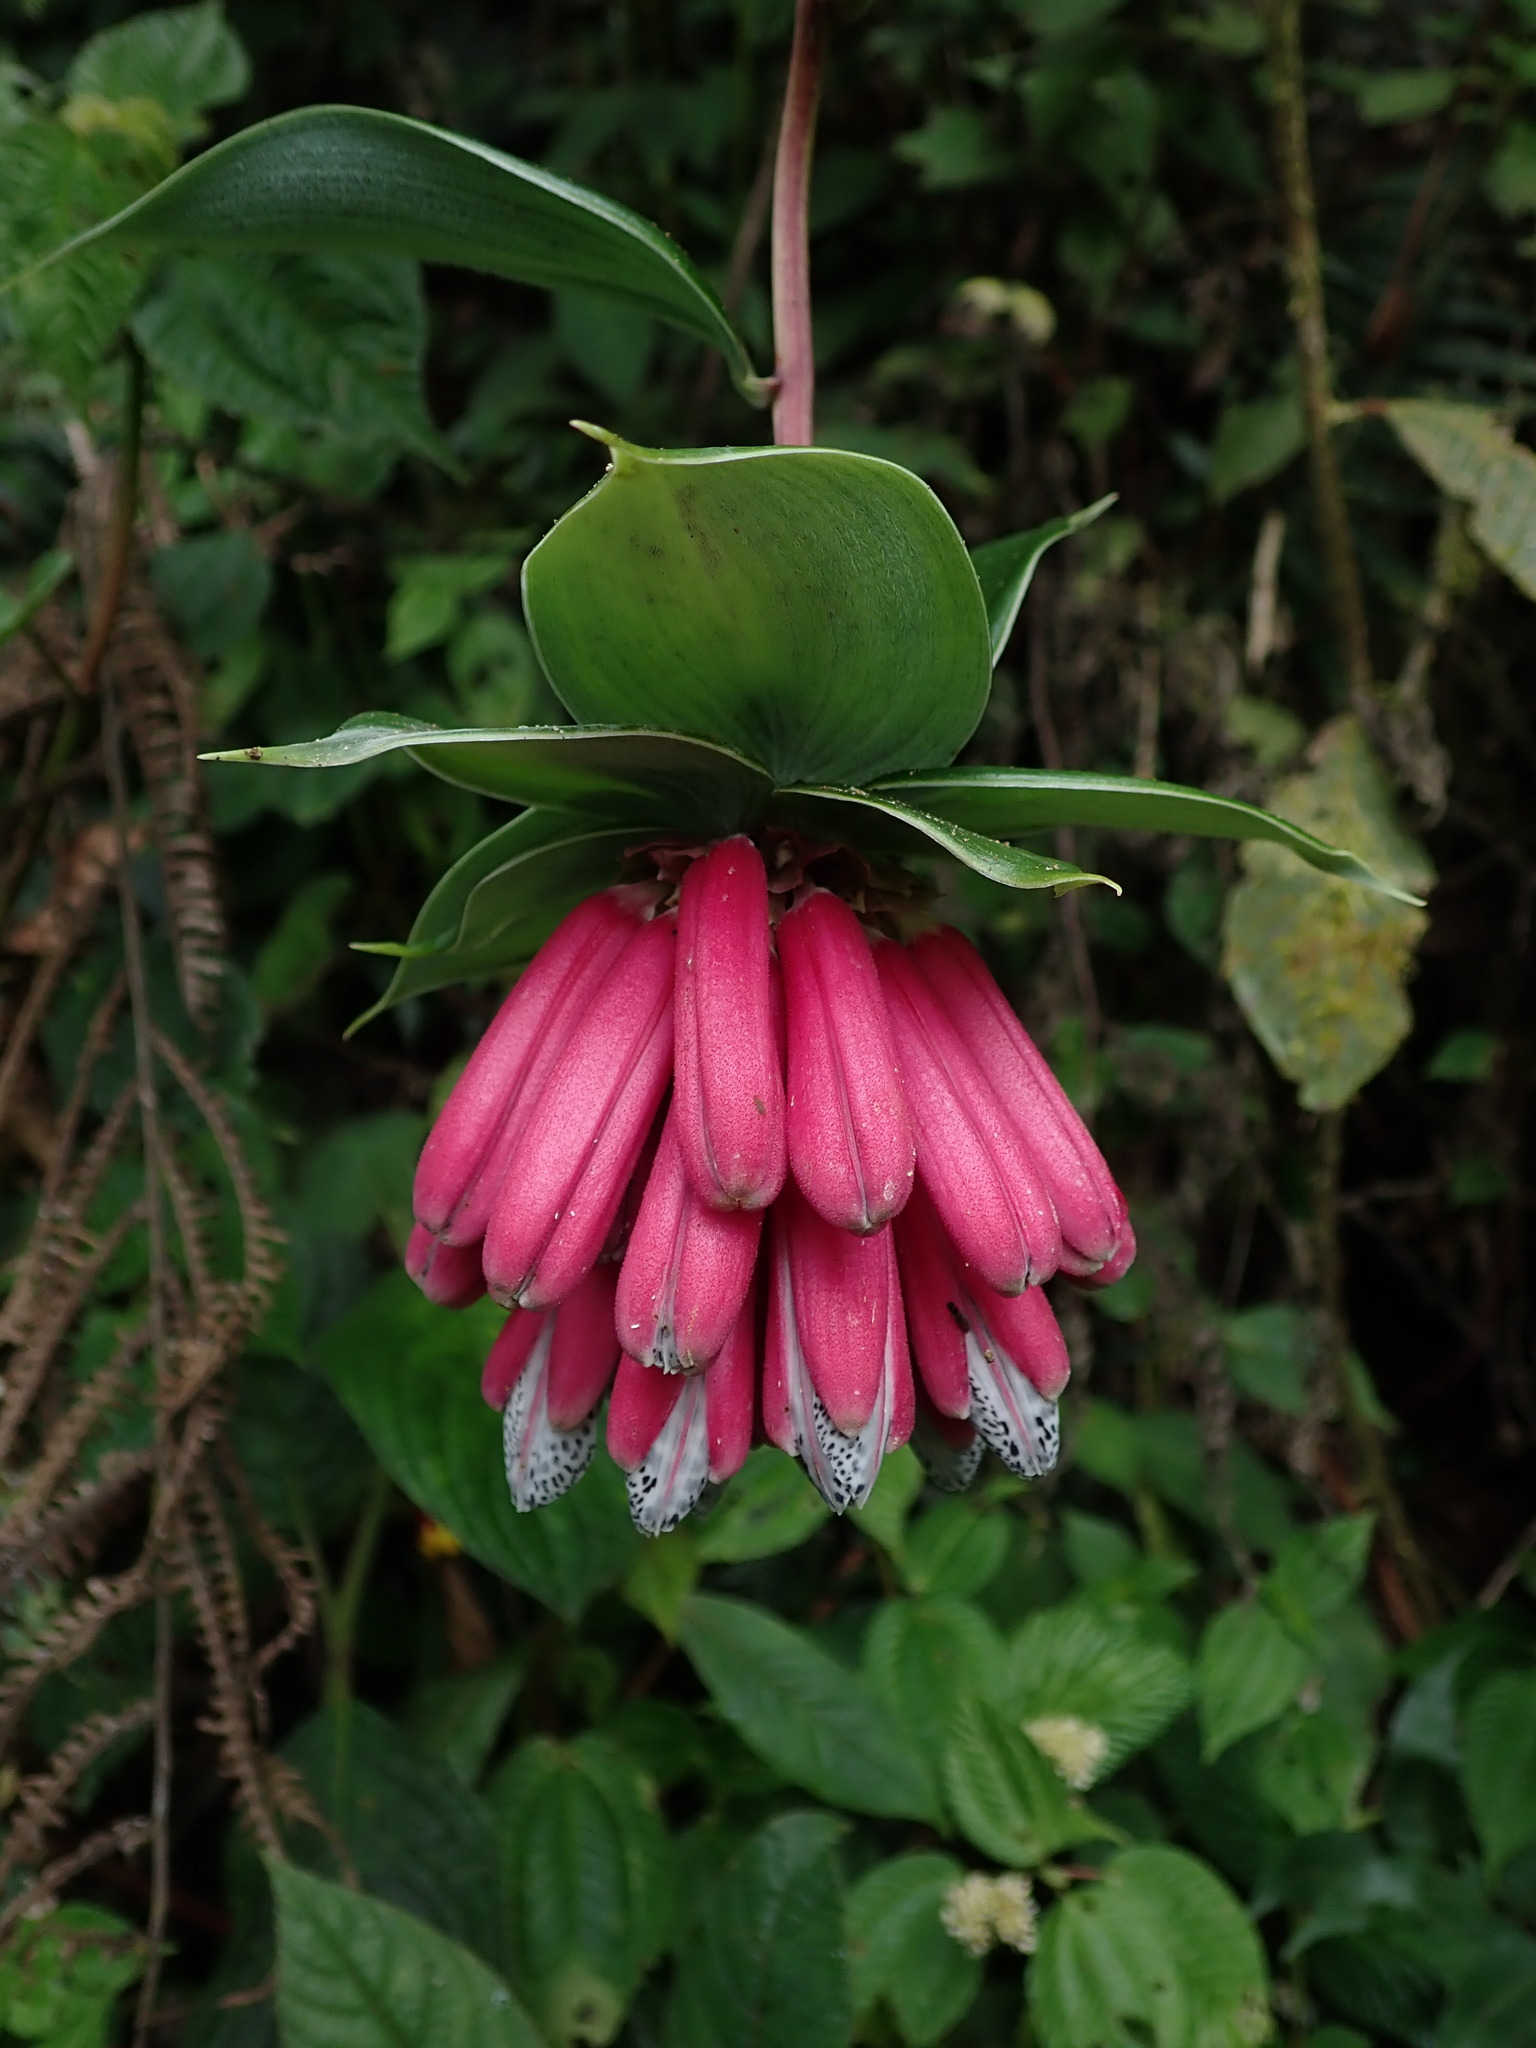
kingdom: Plantae
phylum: Tracheophyta
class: Liliopsida
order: Liliales
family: Alstroemeriaceae
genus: Bomarea
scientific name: Bomarea pardina
